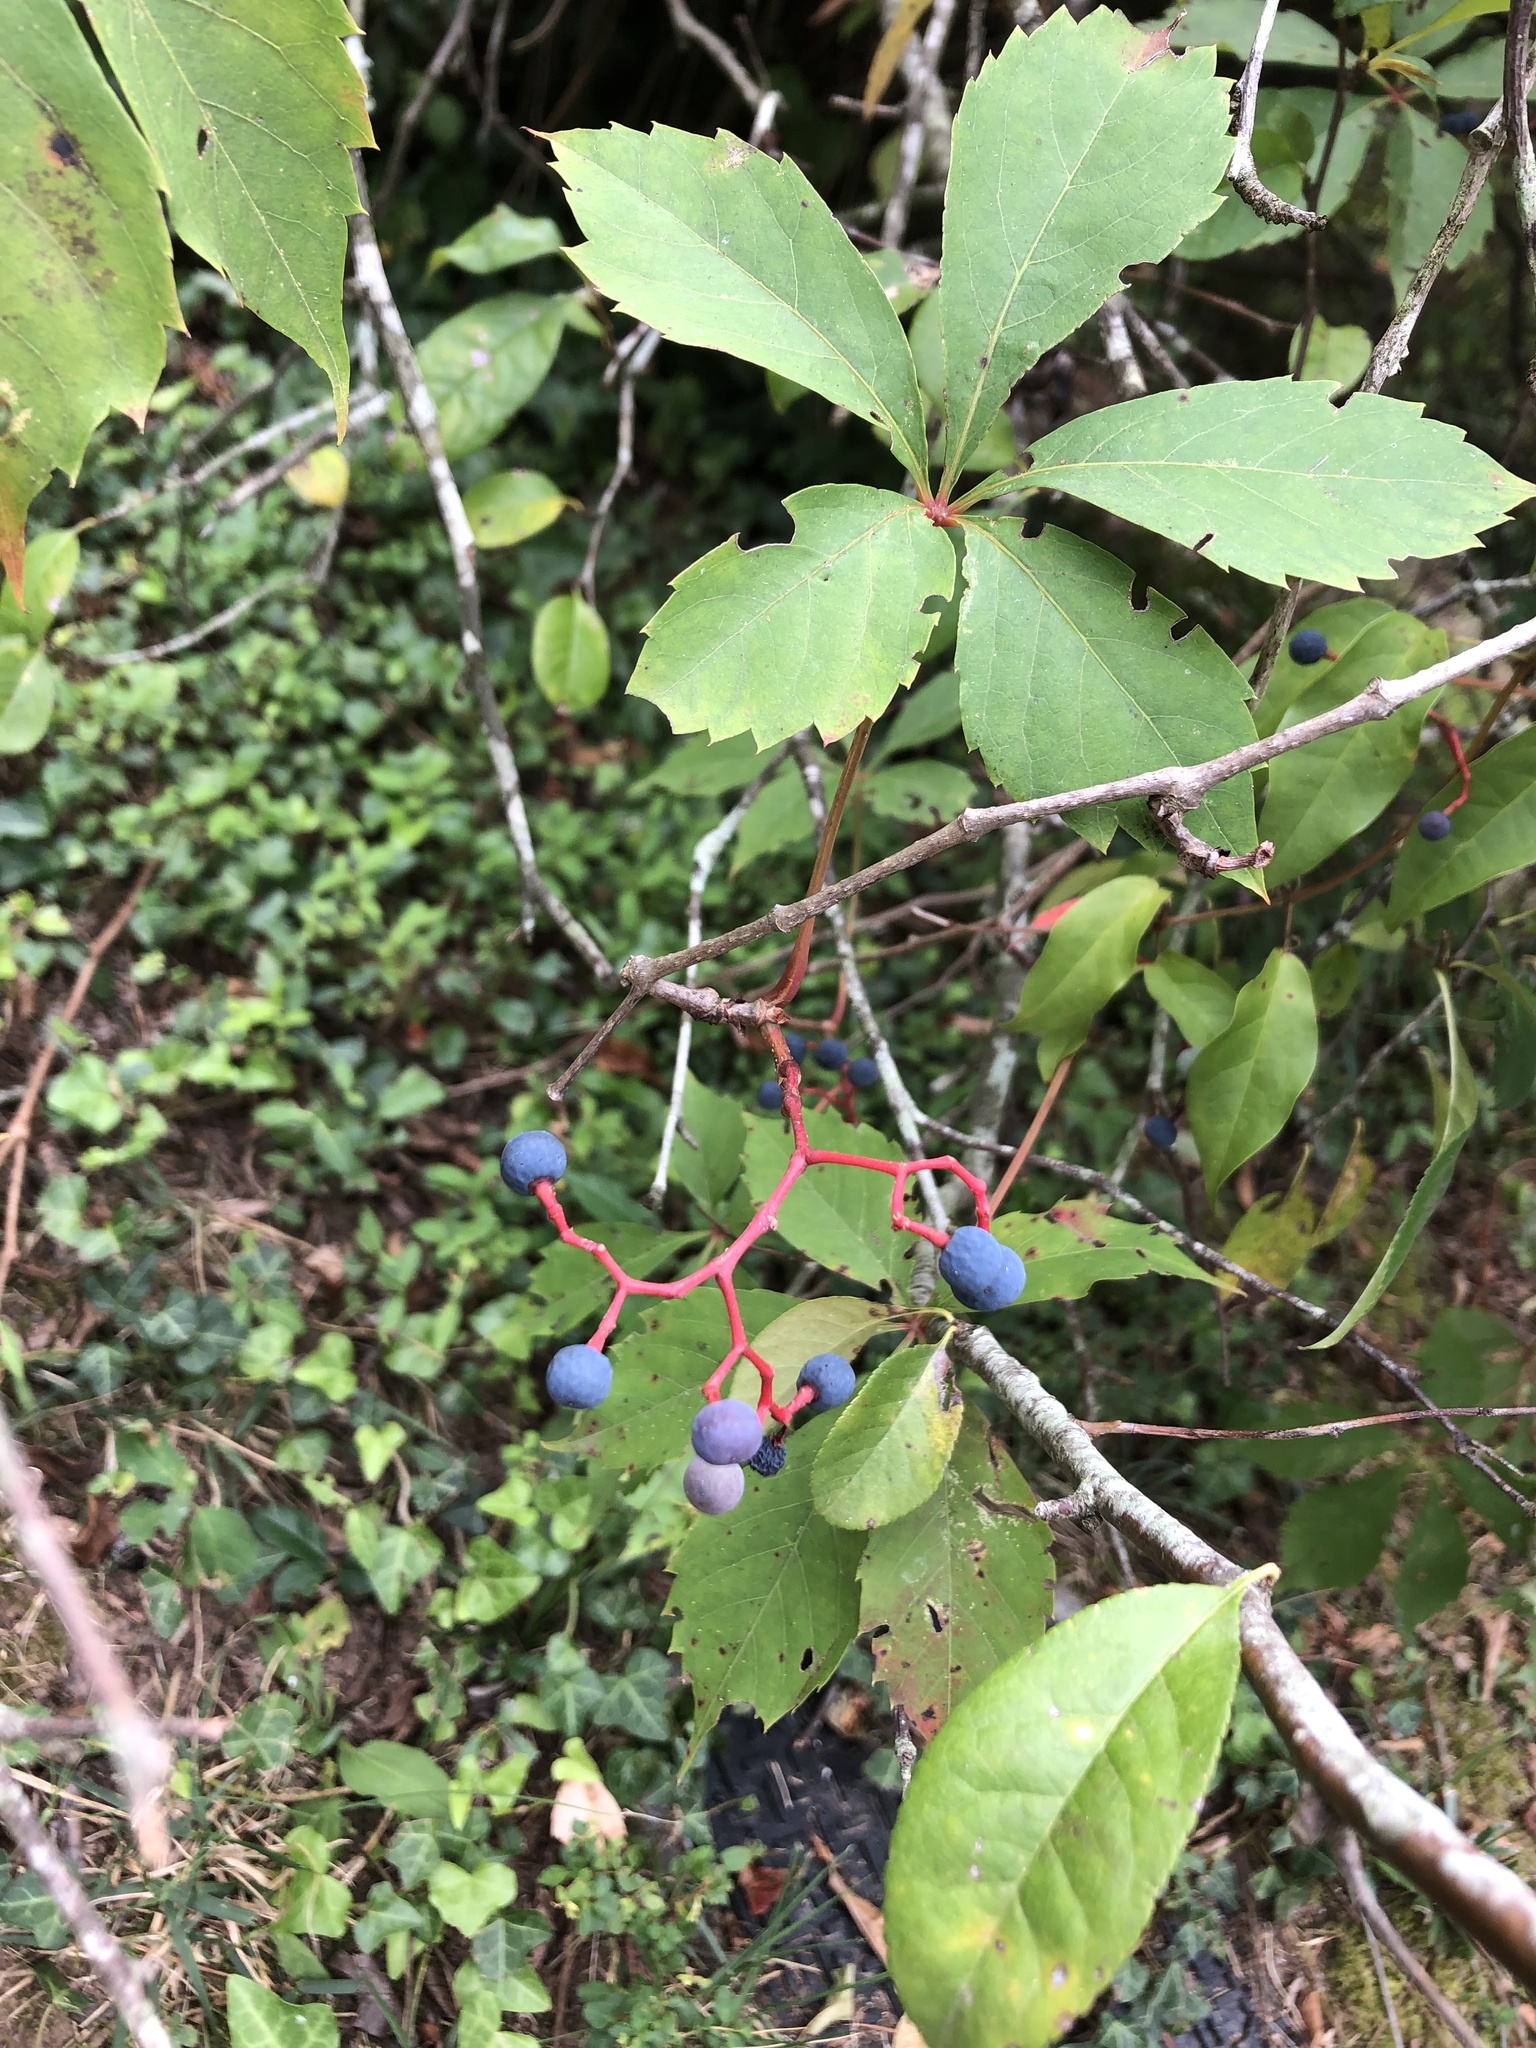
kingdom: Plantae
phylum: Tracheophyta
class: Magnoliopsida
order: Vitales
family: Vitaceae
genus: Parthenocissus
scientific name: Parthenocissus quinquefolia
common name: Virginia-creeper
